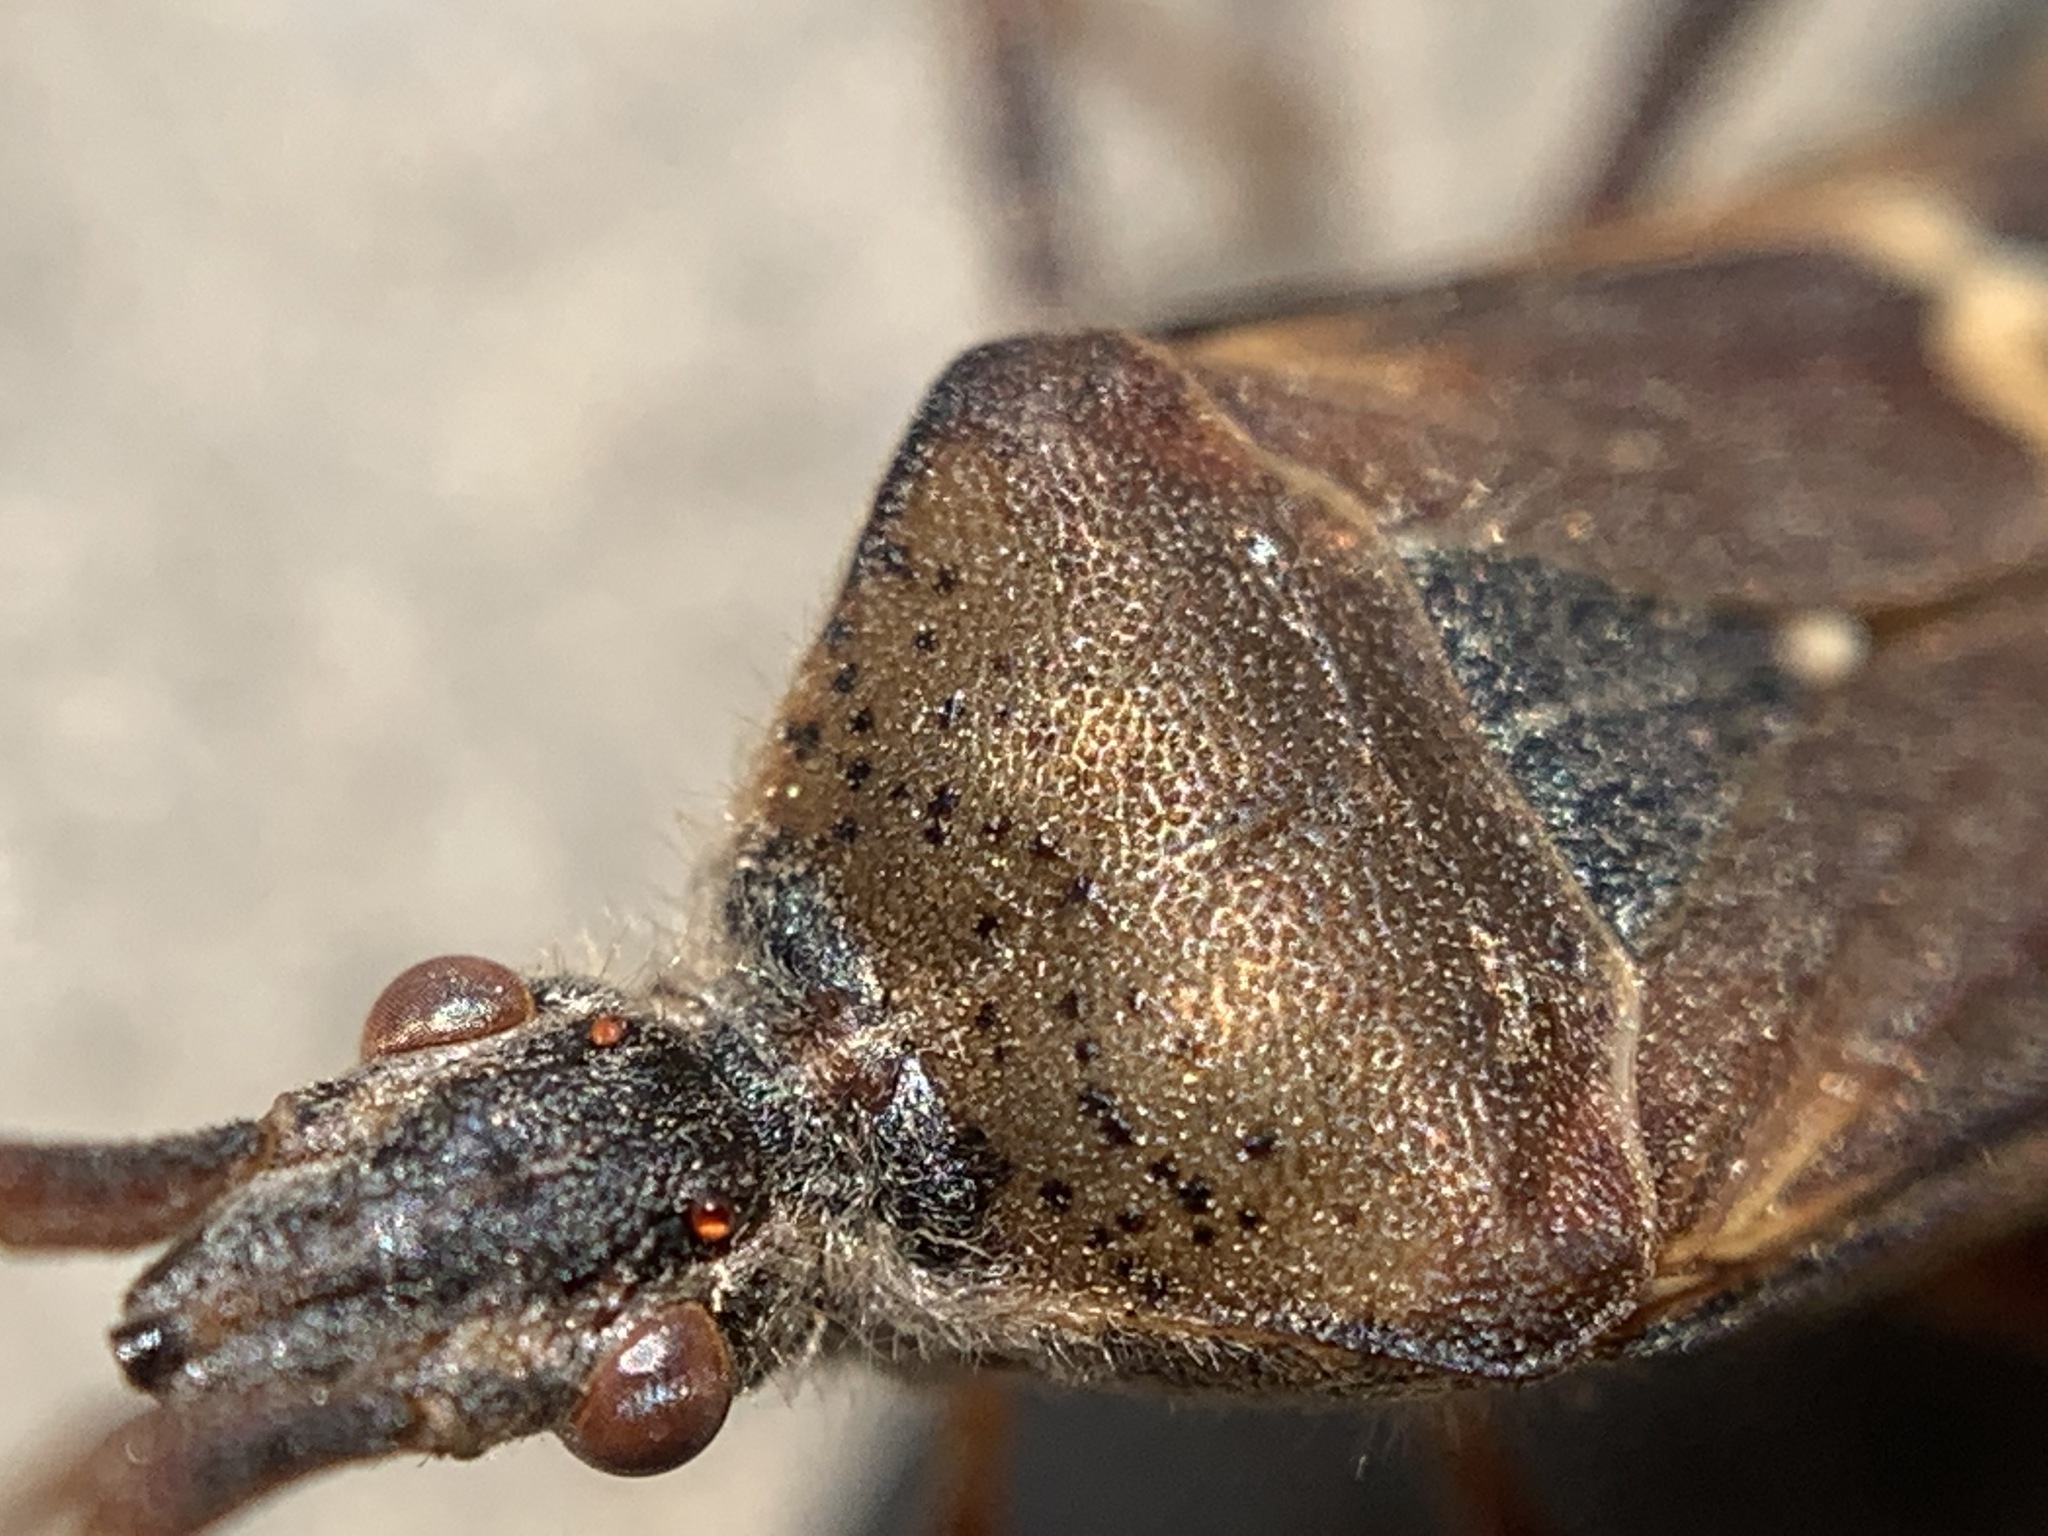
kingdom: Animalia
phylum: Arthropoda
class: Insecta
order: Hemiptera
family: Coreidae
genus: Leptoglossus
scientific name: Leptoglossus clypealis
